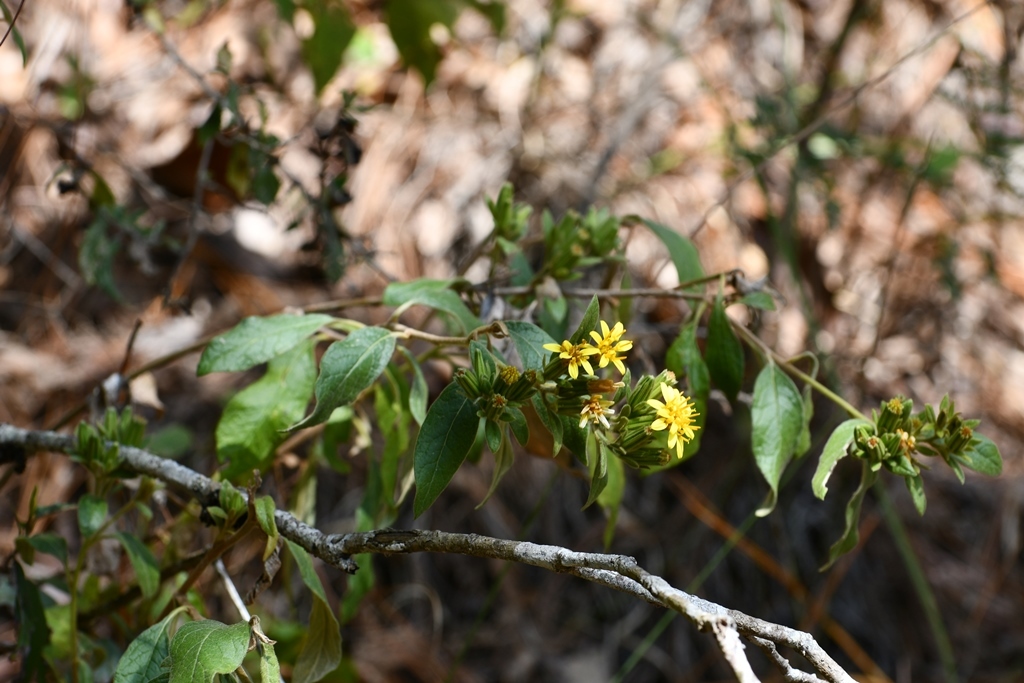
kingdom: Plantae
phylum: Tracheophyta
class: Magnoliopsida
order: Asterales
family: Asteraceae
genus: Trixis
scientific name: Trixis inula
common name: Tropical threefold
